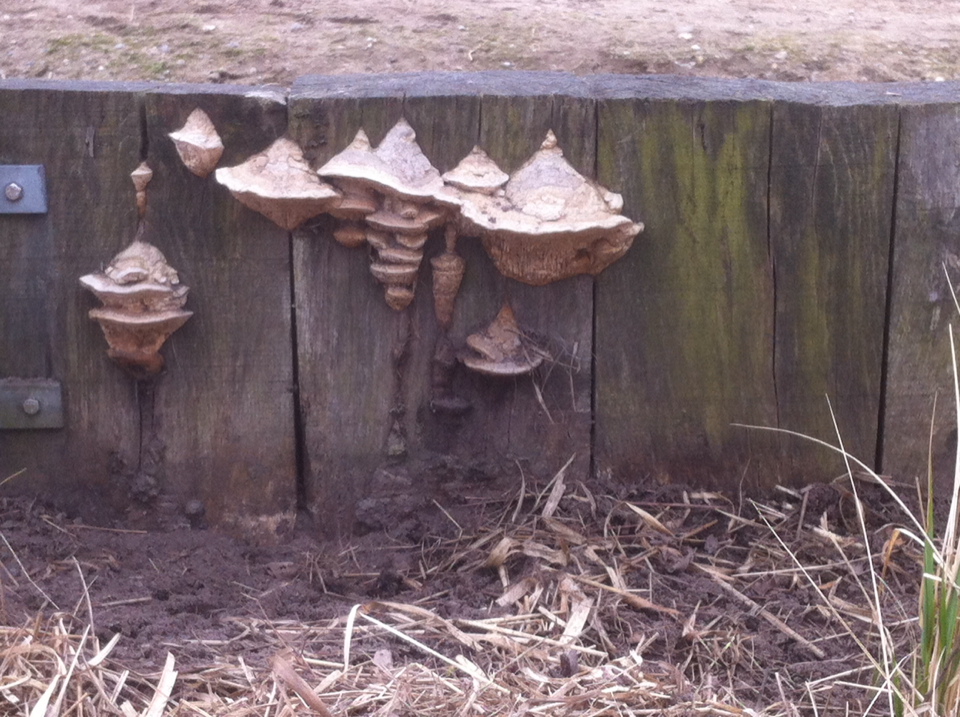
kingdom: Fungi
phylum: Basidiomycota
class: Agaricomycetes
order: Polyporales
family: Fomitopsidaceae
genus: Fomitopsis
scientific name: Fomitopsis
